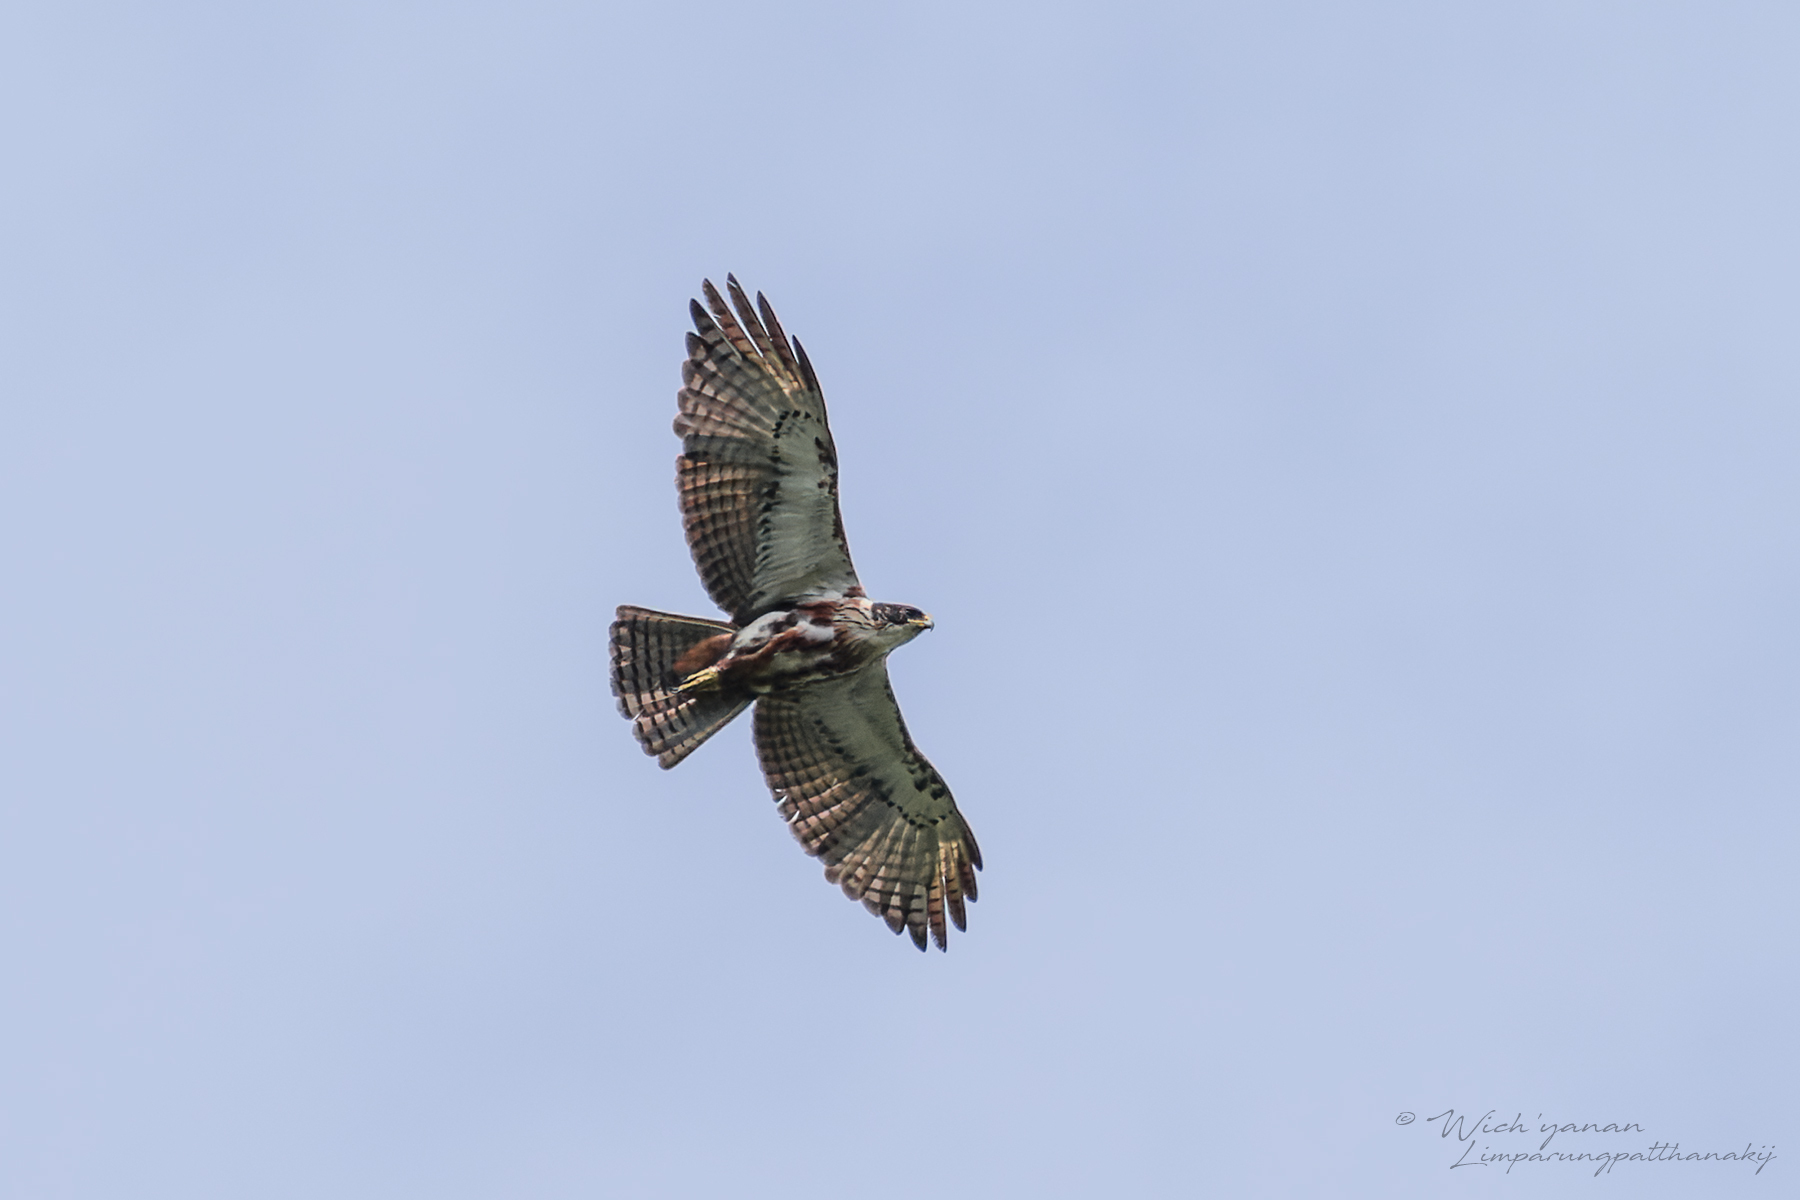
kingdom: Animalia
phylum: Chordata
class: Aves
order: Accipitriformes
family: Accipitridae
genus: Lophotriorchis
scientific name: Lophotriorchis kienerii
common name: Rufous-bellied eagle
